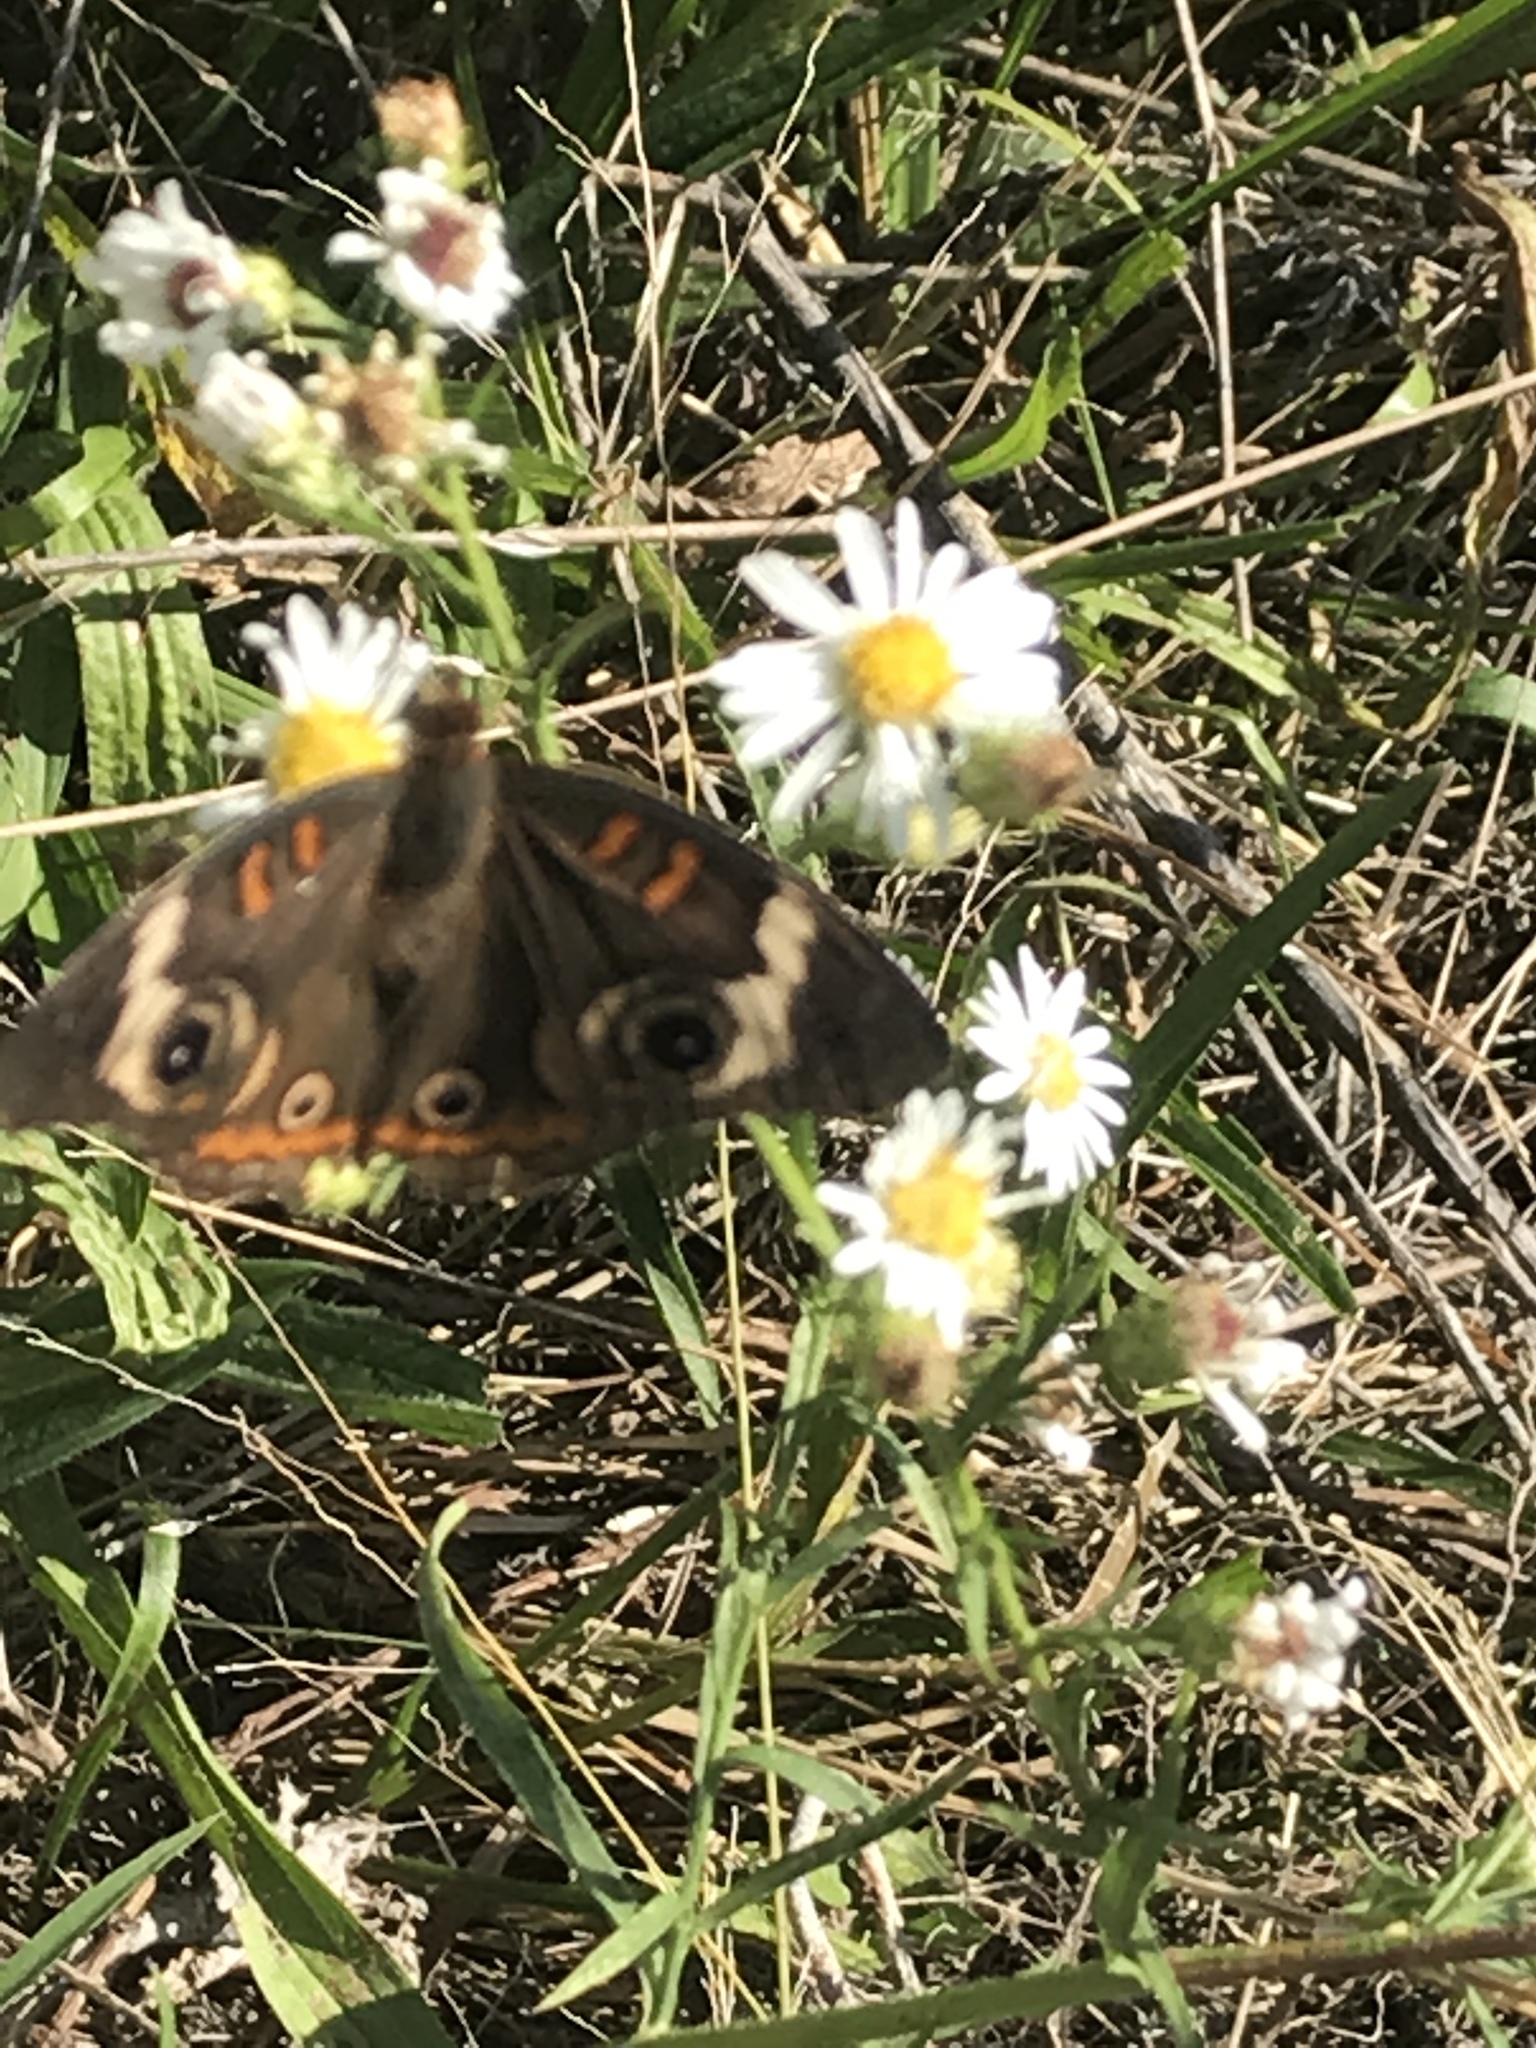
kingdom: Animalia
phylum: Arthropoda
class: Insecta
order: Lepidoptera
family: Nymphalidae
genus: Junonia
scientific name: Junonia coenia
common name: Common buckeye
